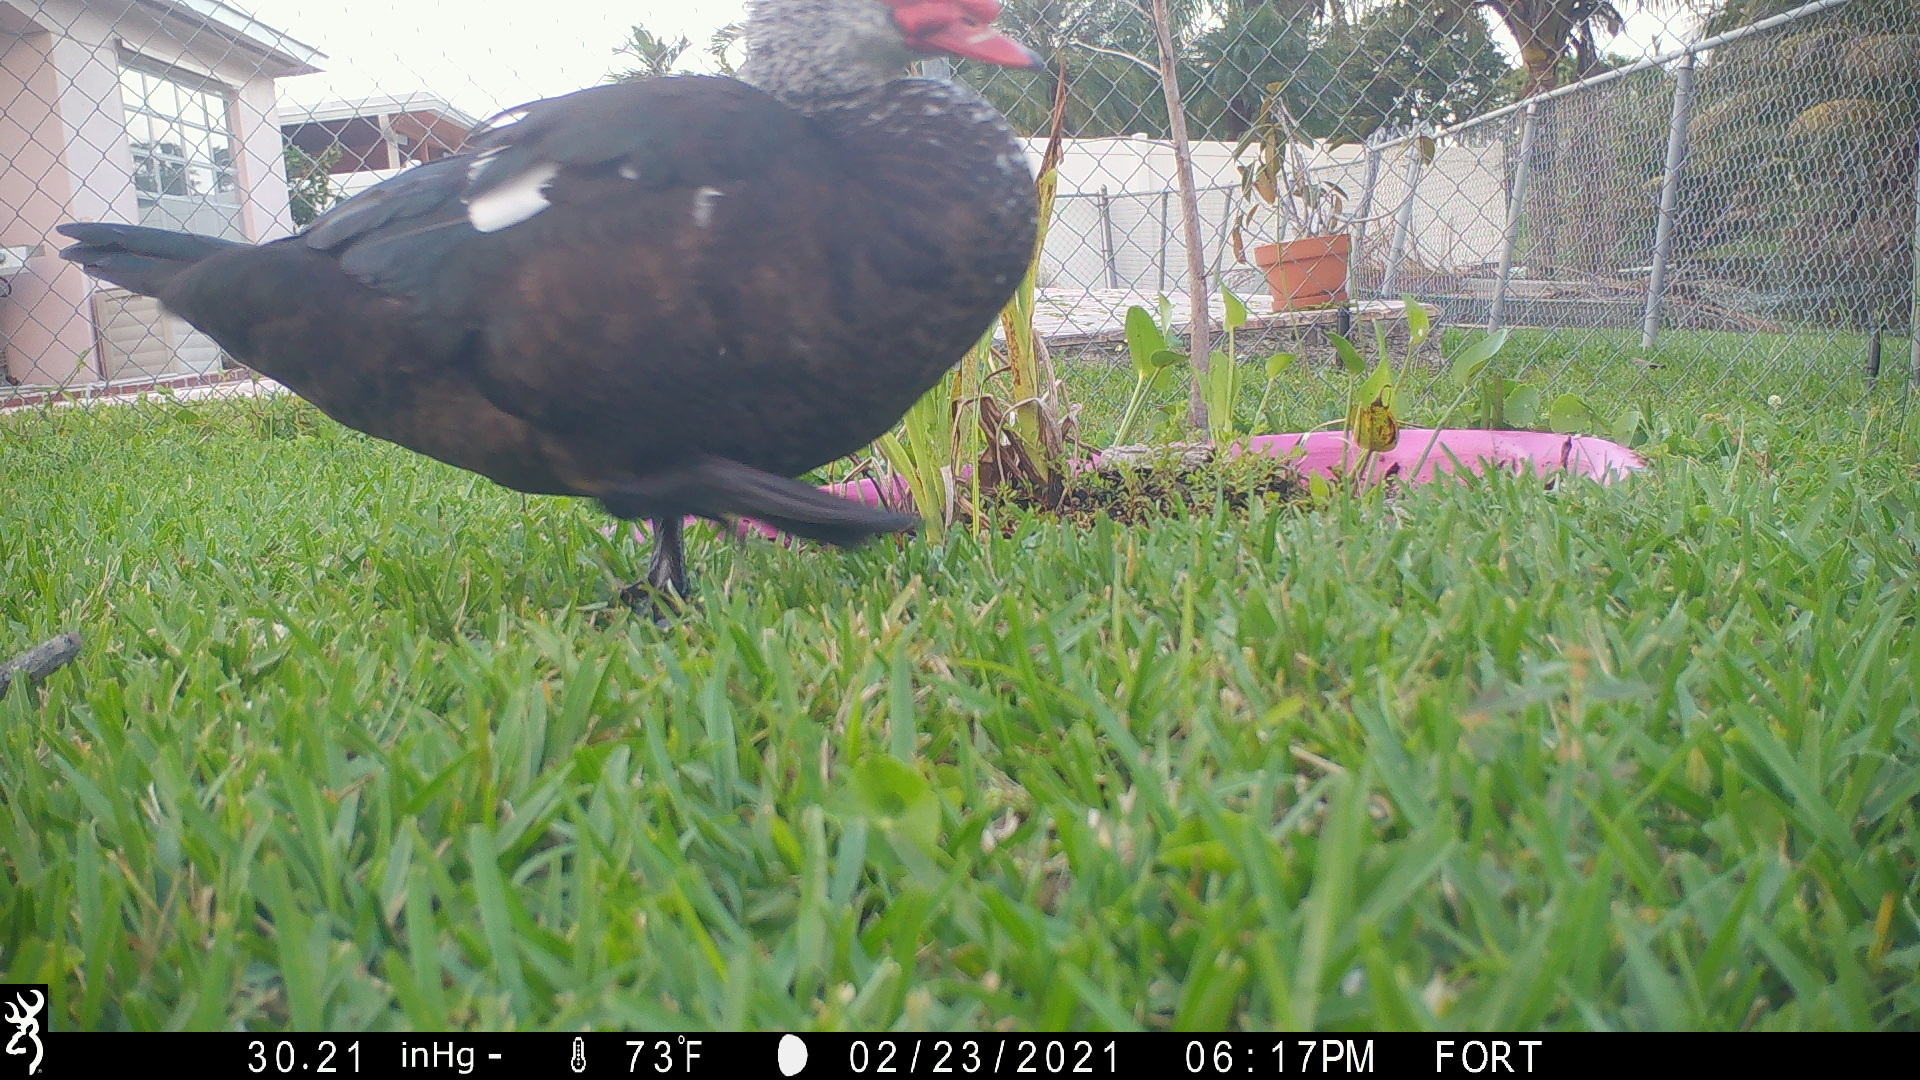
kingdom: Animalia
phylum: Chordata
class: Aves
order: Anseriformes
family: Anatidae
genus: Cairina
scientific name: Cairina moschata
